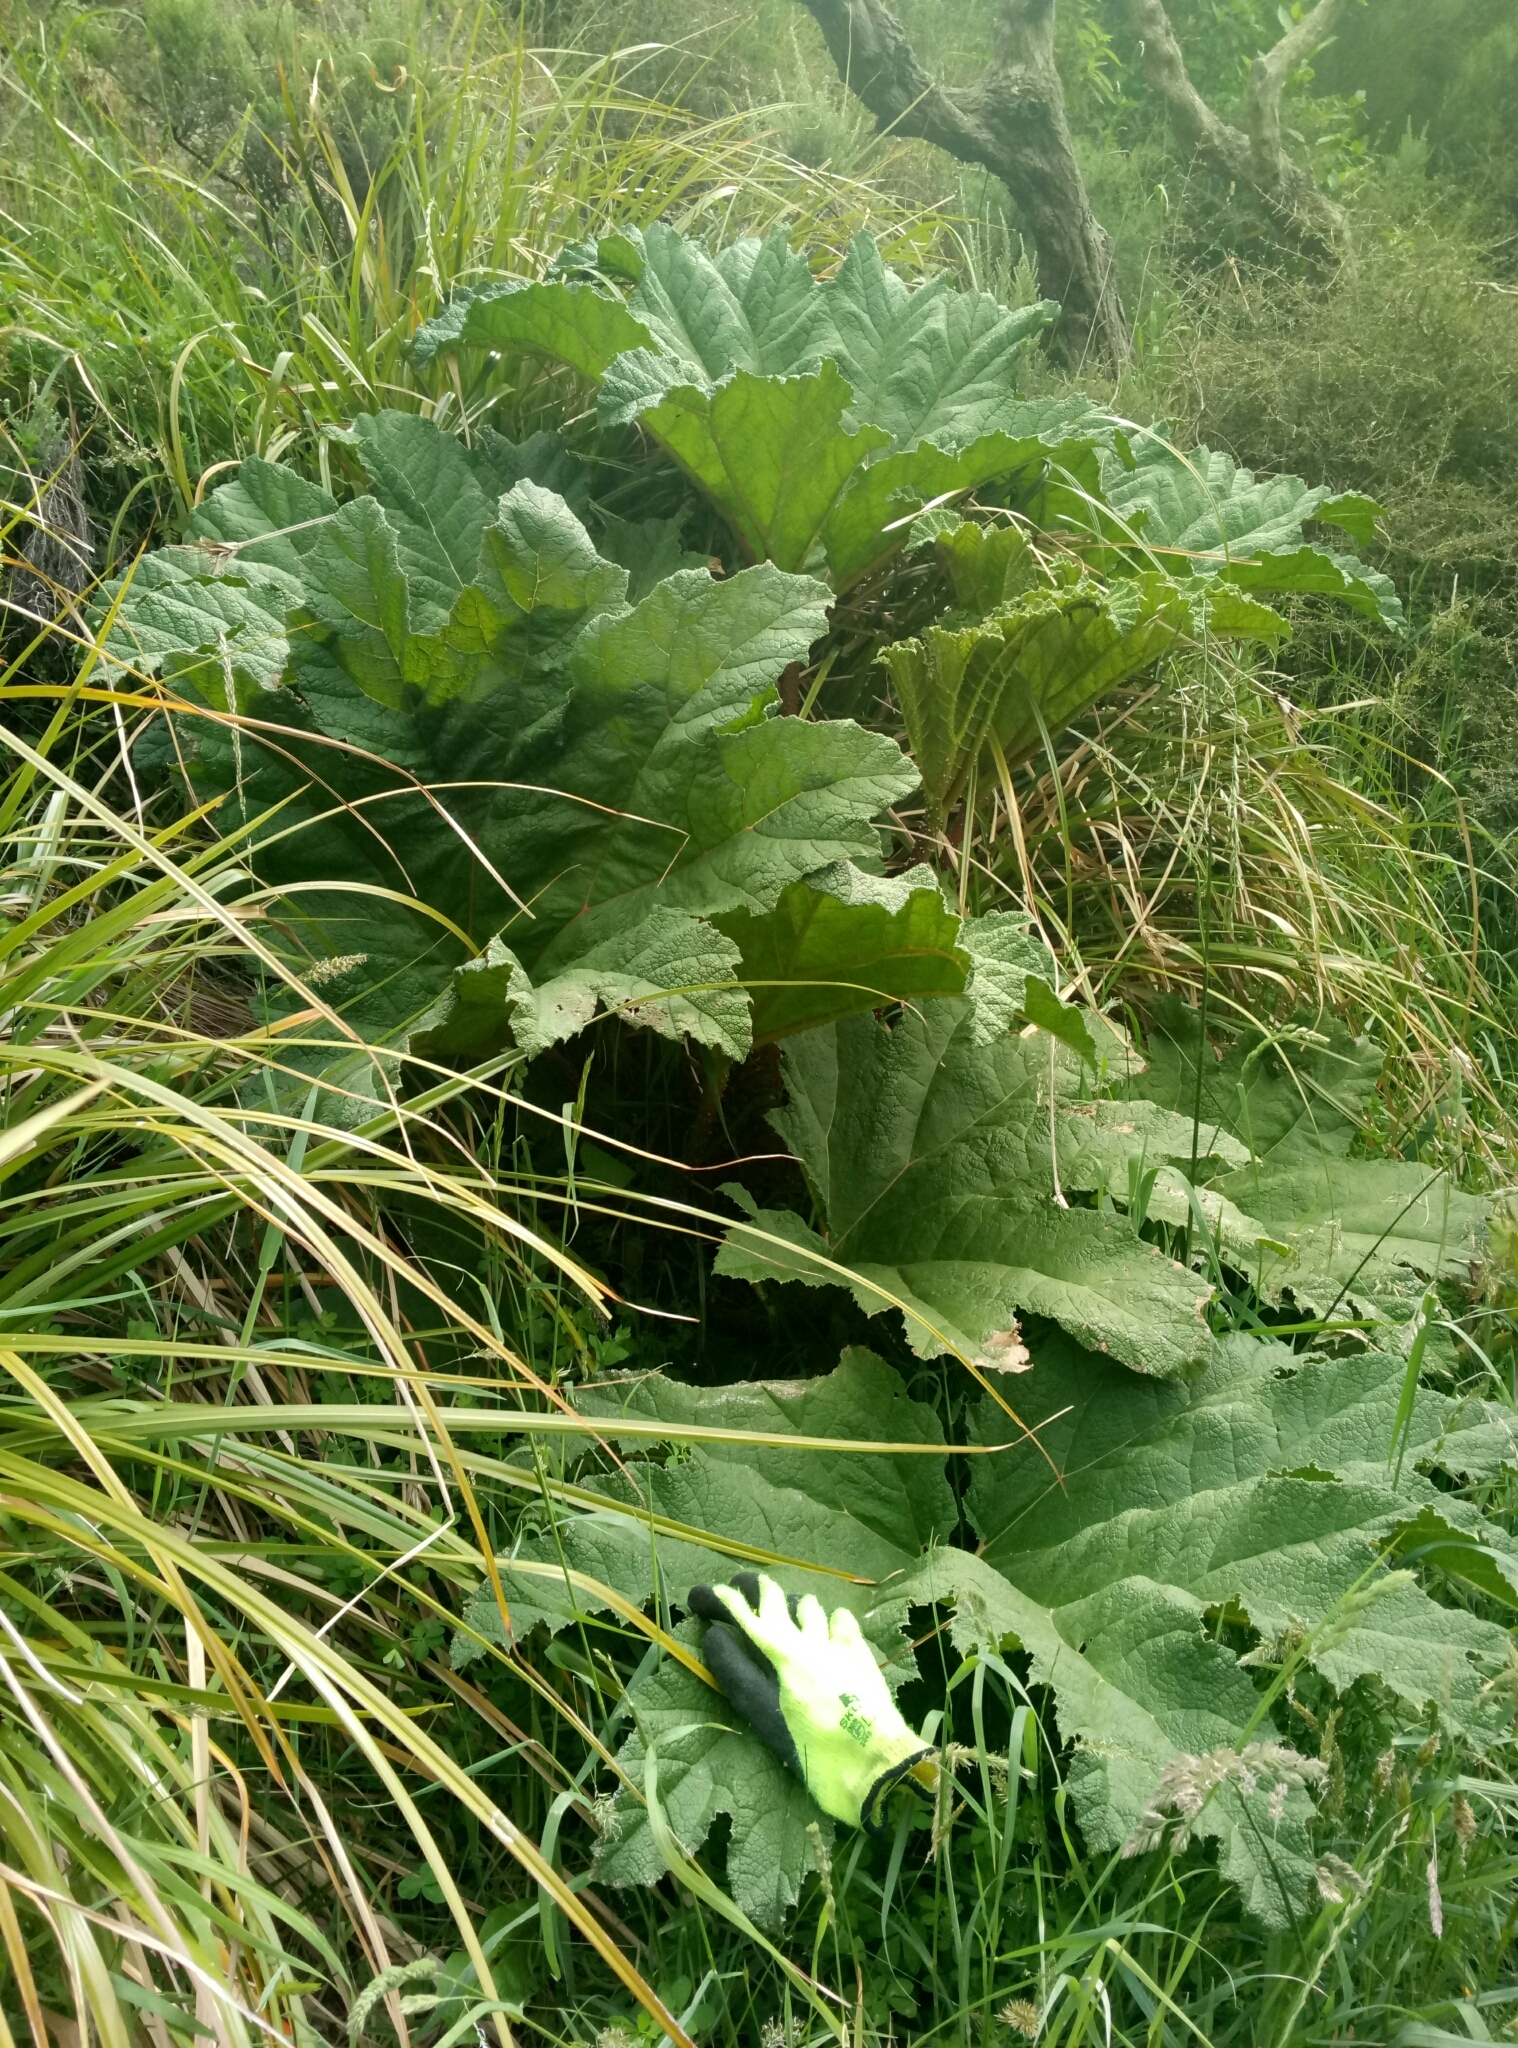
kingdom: Plantae
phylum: Tracheophyta
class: Magnoliopsida
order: Gunnerales
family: Gunneraceae
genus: Gunnera
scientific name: Gunnera tinctoria
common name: Giant-rhubarb
